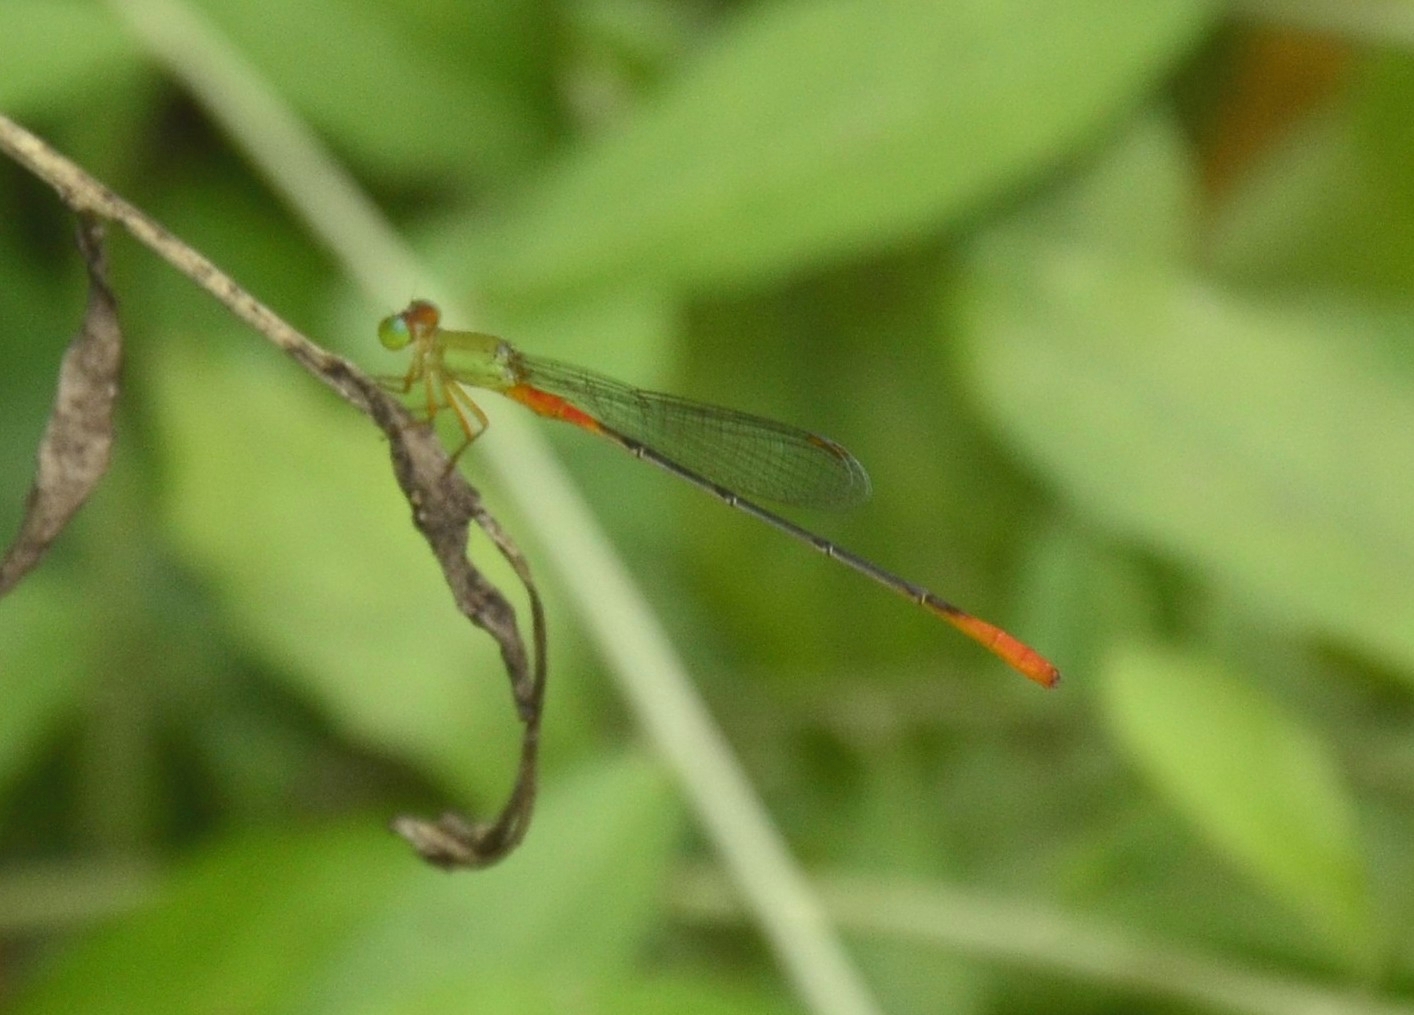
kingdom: Animalia
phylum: Arthropoda
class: Insecta
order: Odonata
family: Coenagrionidae
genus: Ceriagrion
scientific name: Ceriagrion cerinorubellum
